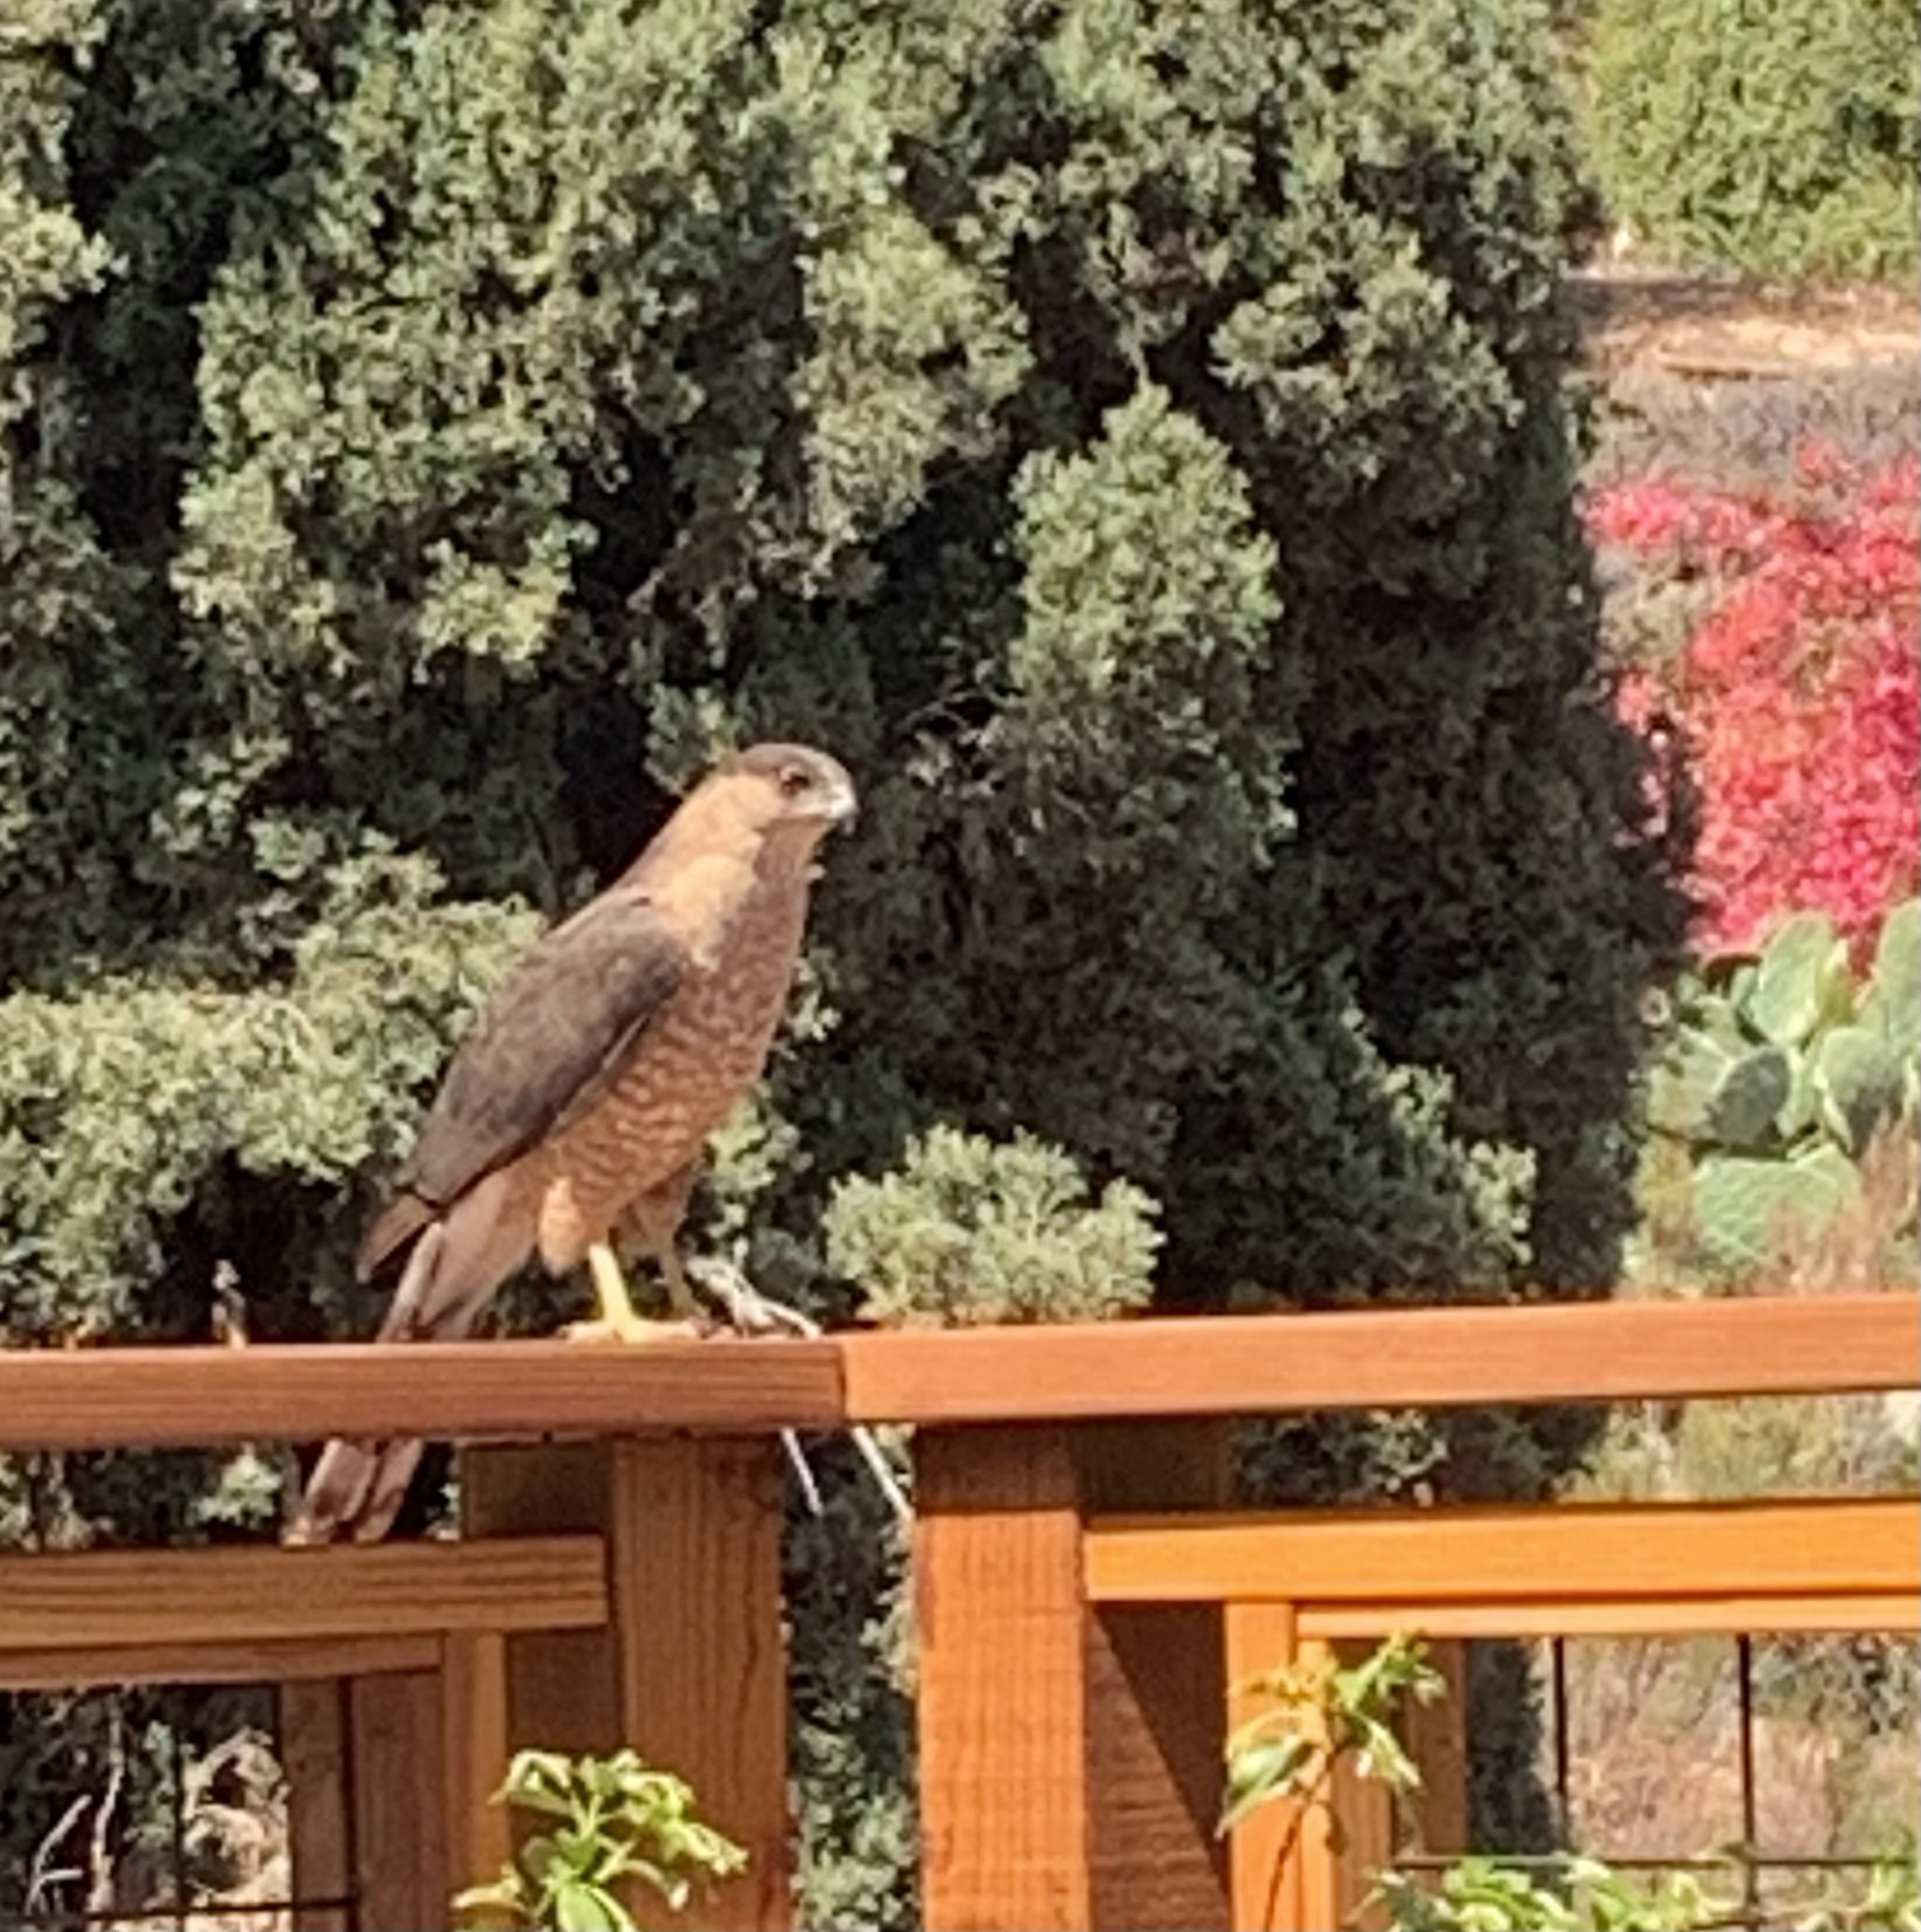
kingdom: Animalia
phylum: Chordata
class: Aves
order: Accipitriformes
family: Accipitridae
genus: Accipiter
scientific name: Accipiter cooperii
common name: Cooper's hawk
